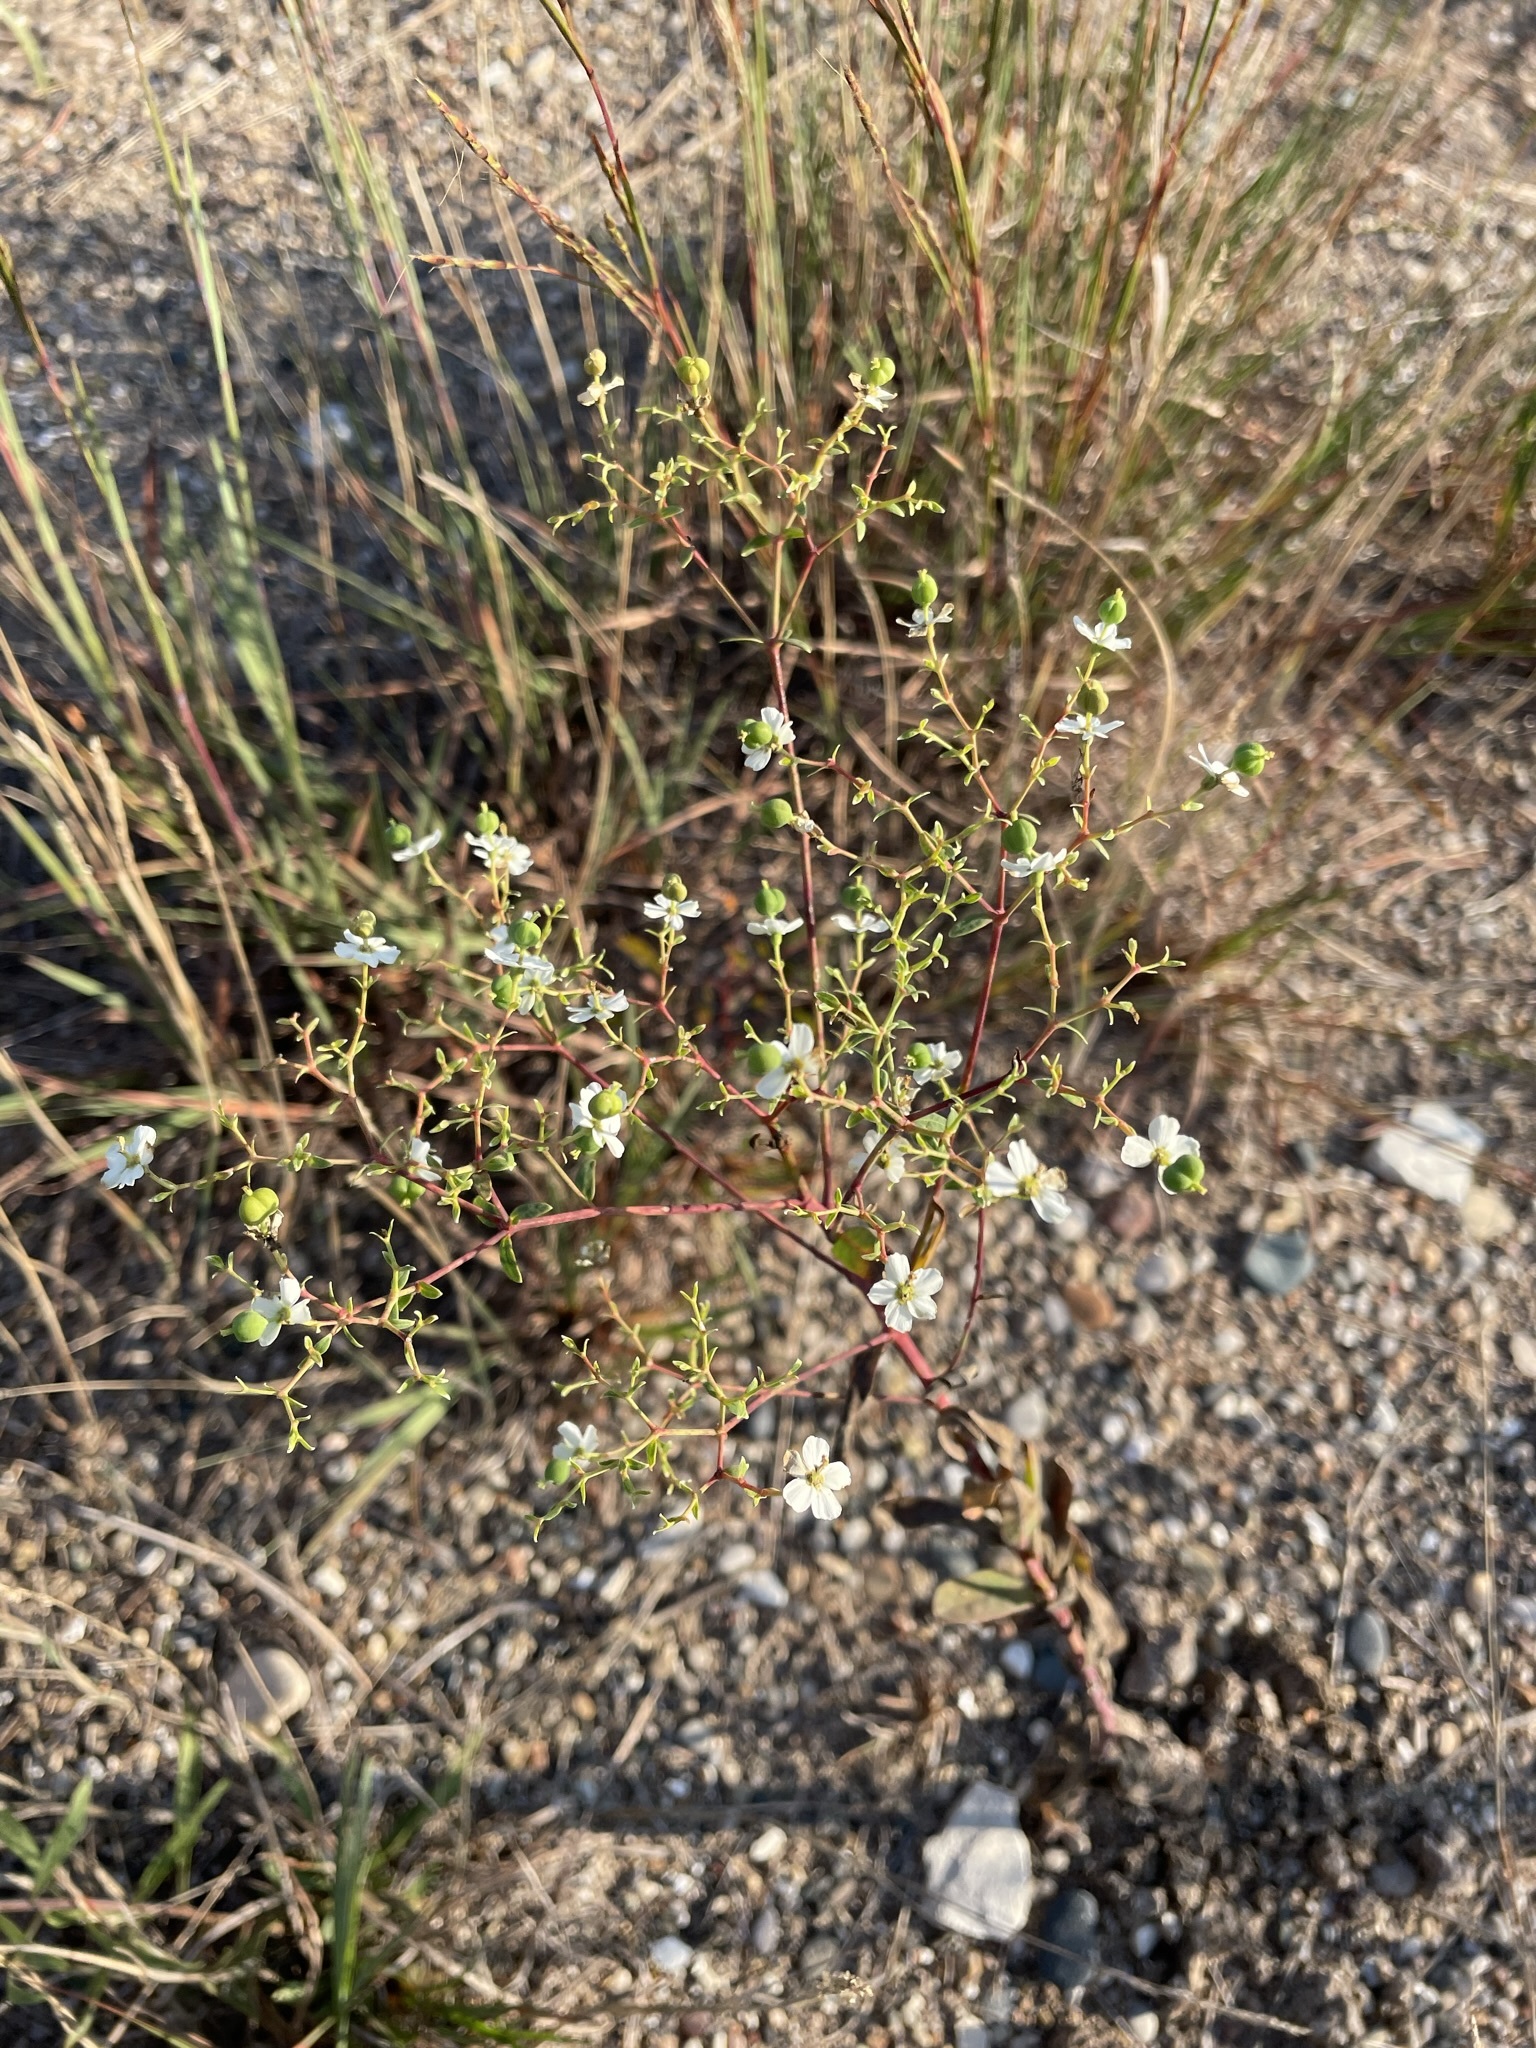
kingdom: Plantae
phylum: Tracheophyta
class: Magnoliopsida
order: Malpighiales
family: Euphorbiaceae
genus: Euphorbia
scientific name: Euphorbia corollata
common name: Flowering spurge
